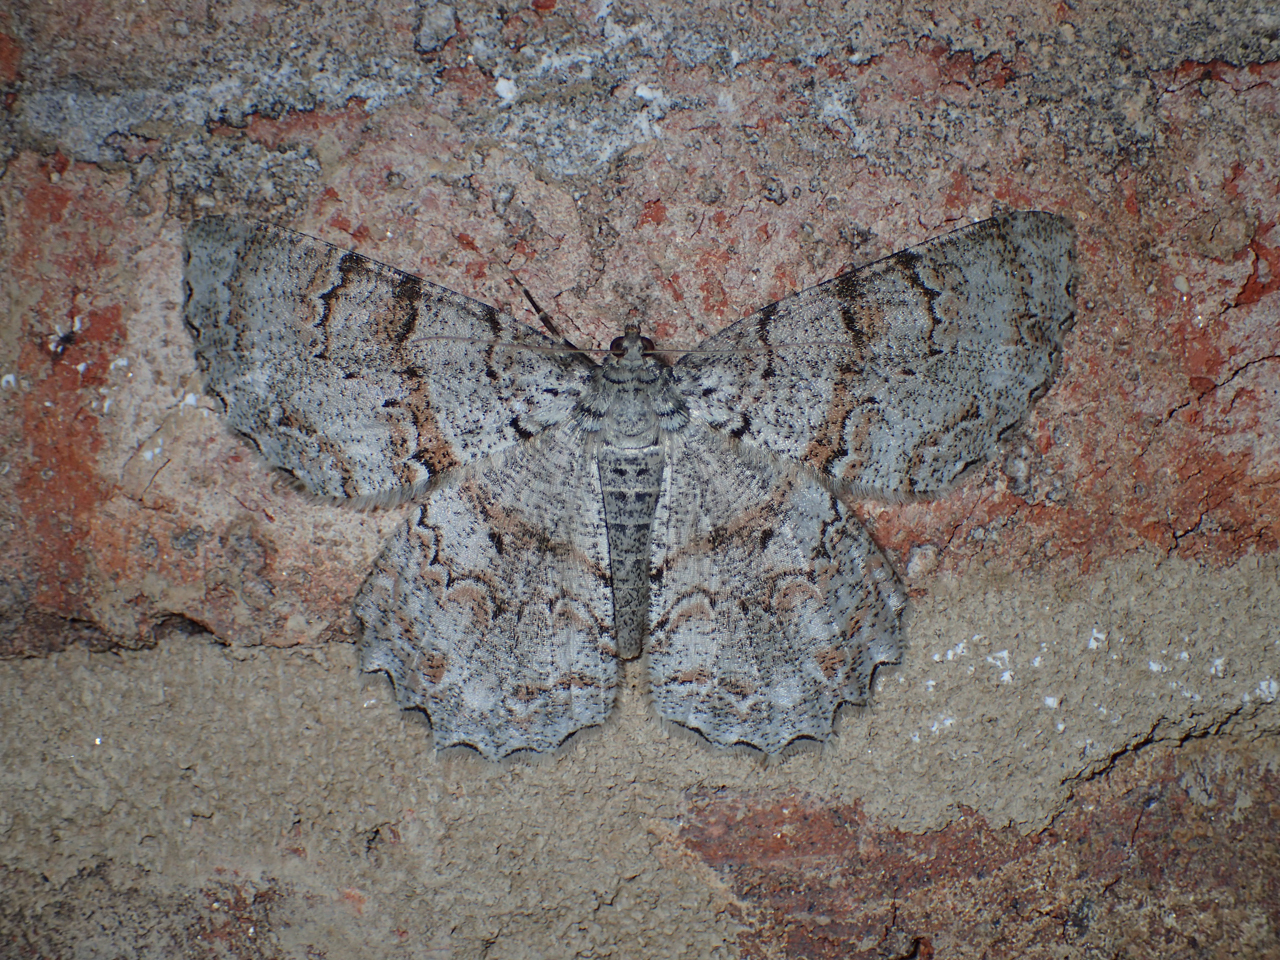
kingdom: Animalia
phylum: Arthropoda
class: Insecta
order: Lepidoptera
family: Geometridae
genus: Epimecis
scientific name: Epimecis hortaria
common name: Tulip-tree beauty
